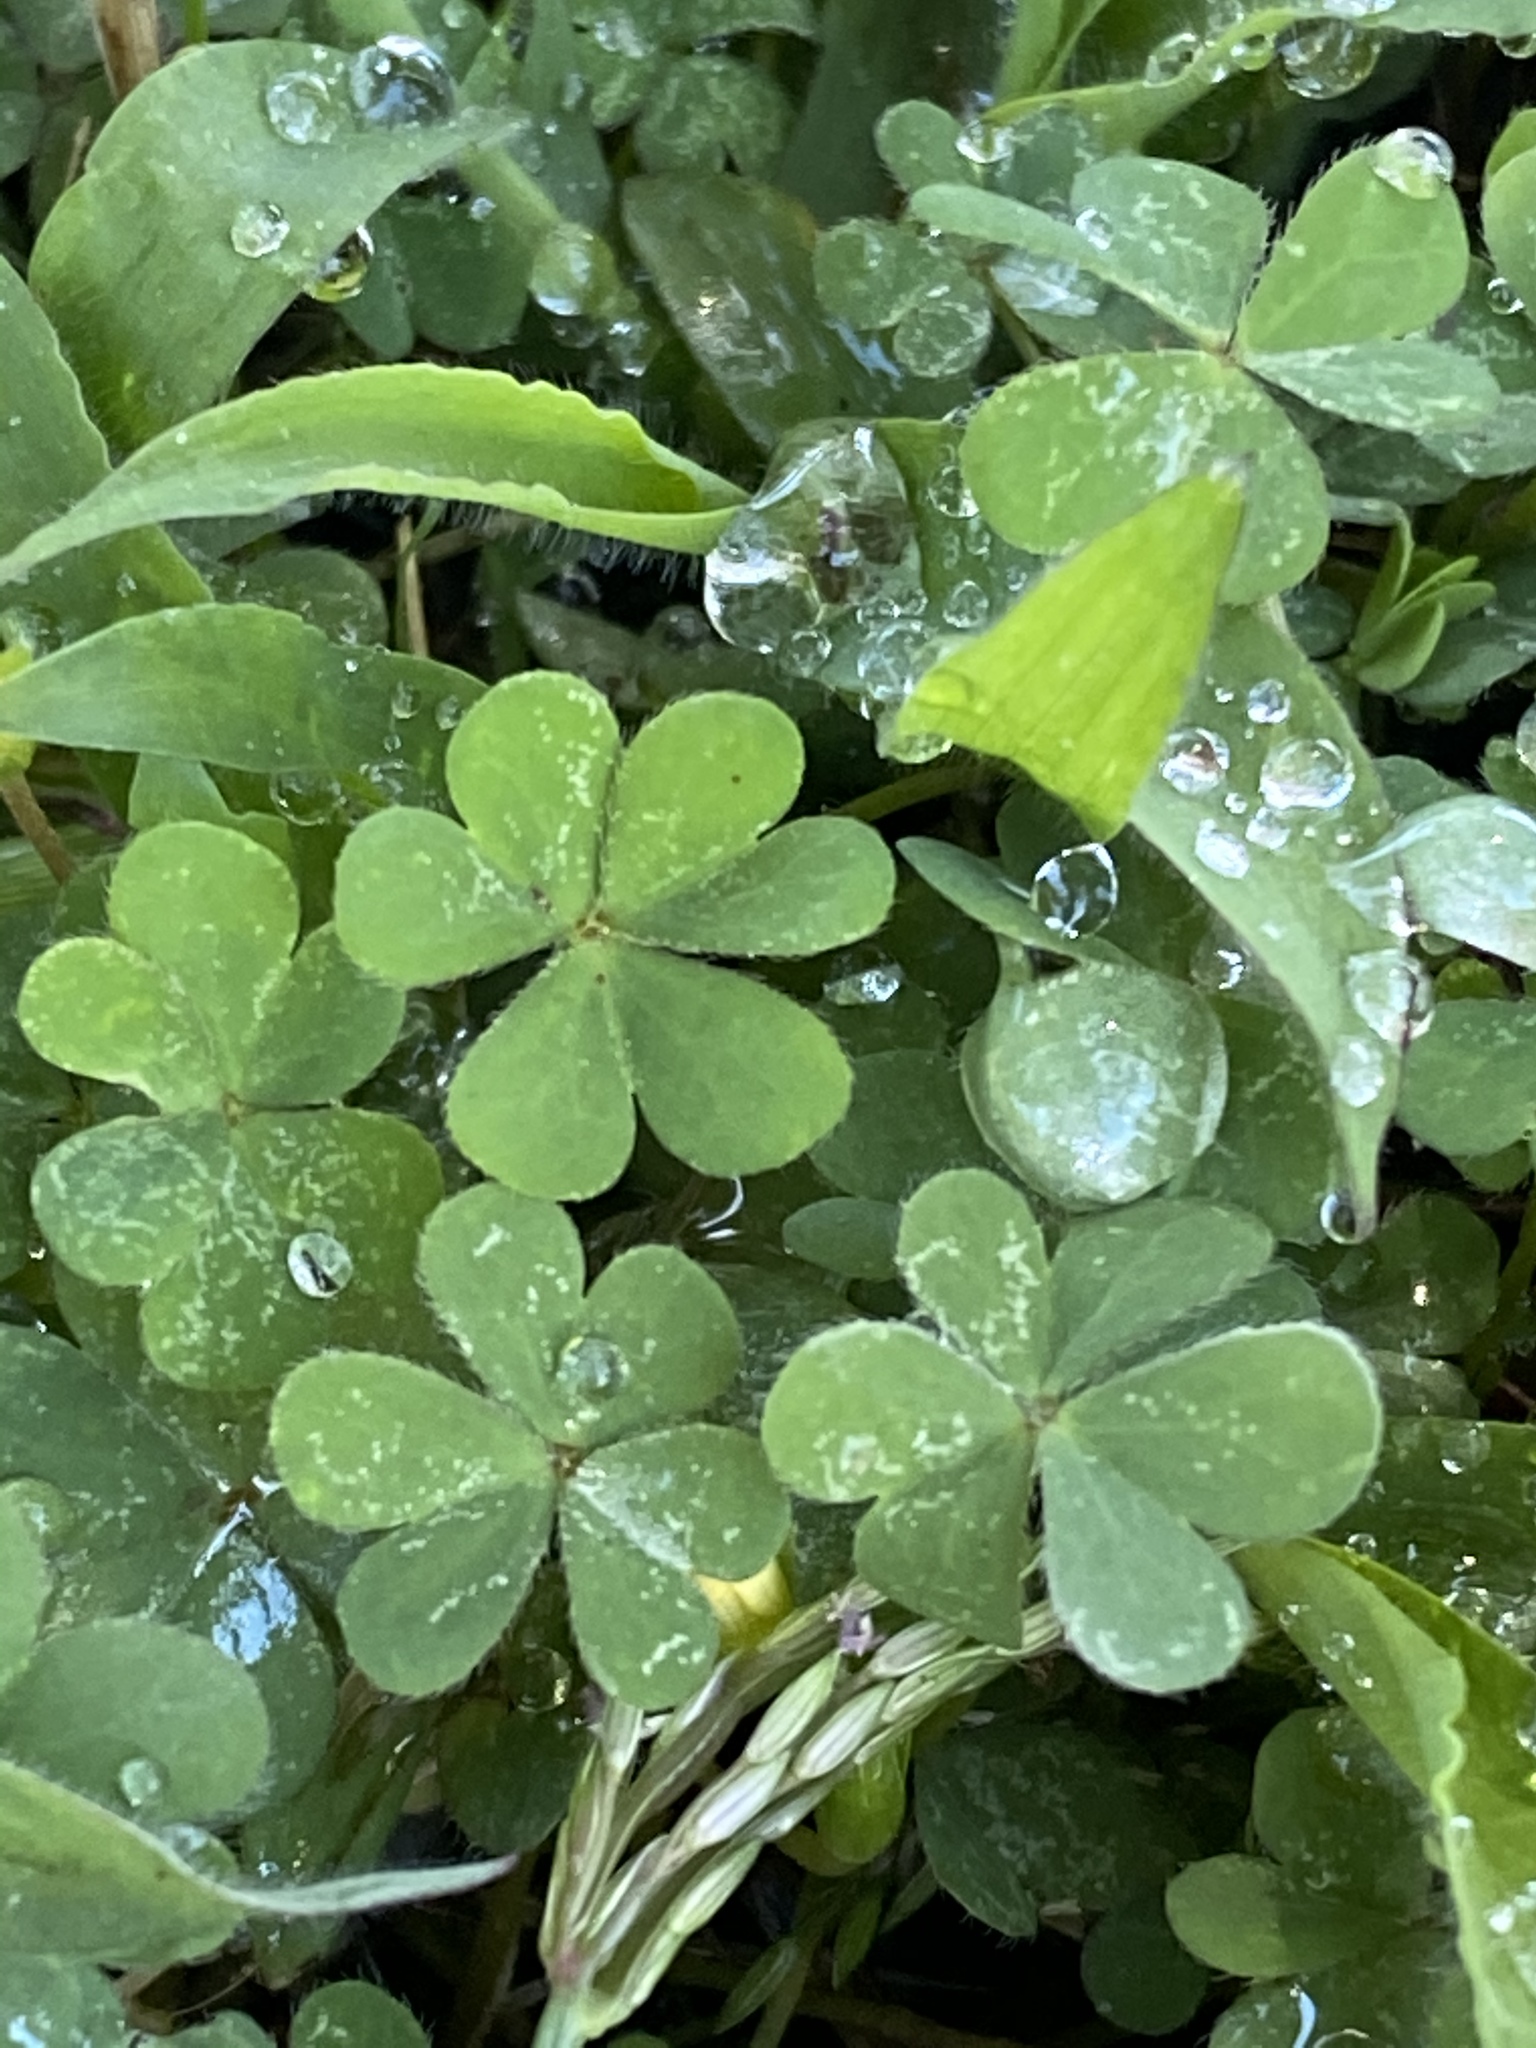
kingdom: Plantae
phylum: Tracheophyta
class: Magnoliopsida
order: Oxalidales
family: Oxalidaceae
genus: Oxalis
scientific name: Oxalis corniculata
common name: Procumbent yellow-sorrel
